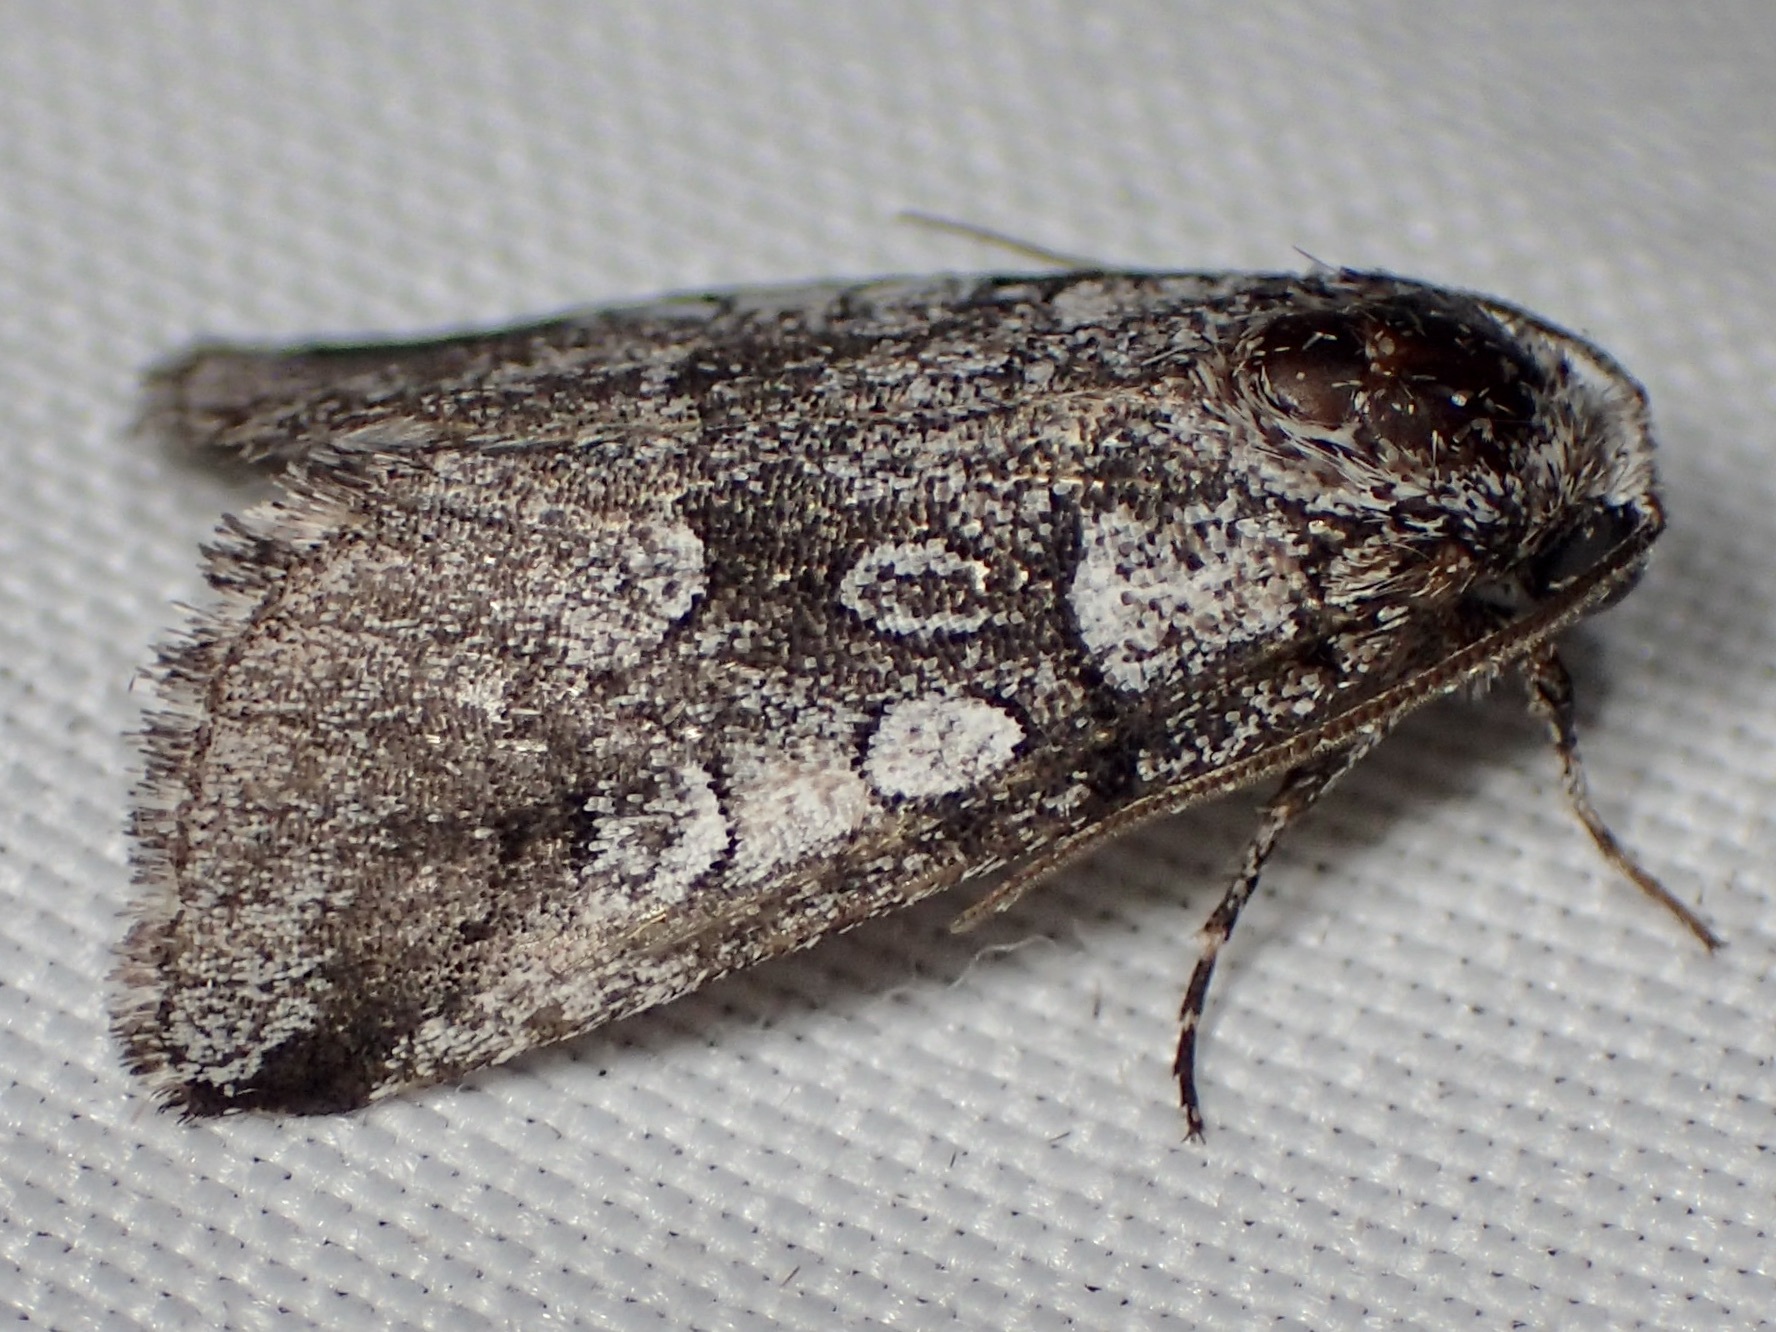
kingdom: Animalia
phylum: Arthropoda
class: Insecta
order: Lepidoptera
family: Noctuidae
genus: Oxycnemis
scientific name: Oxycnemis advena
